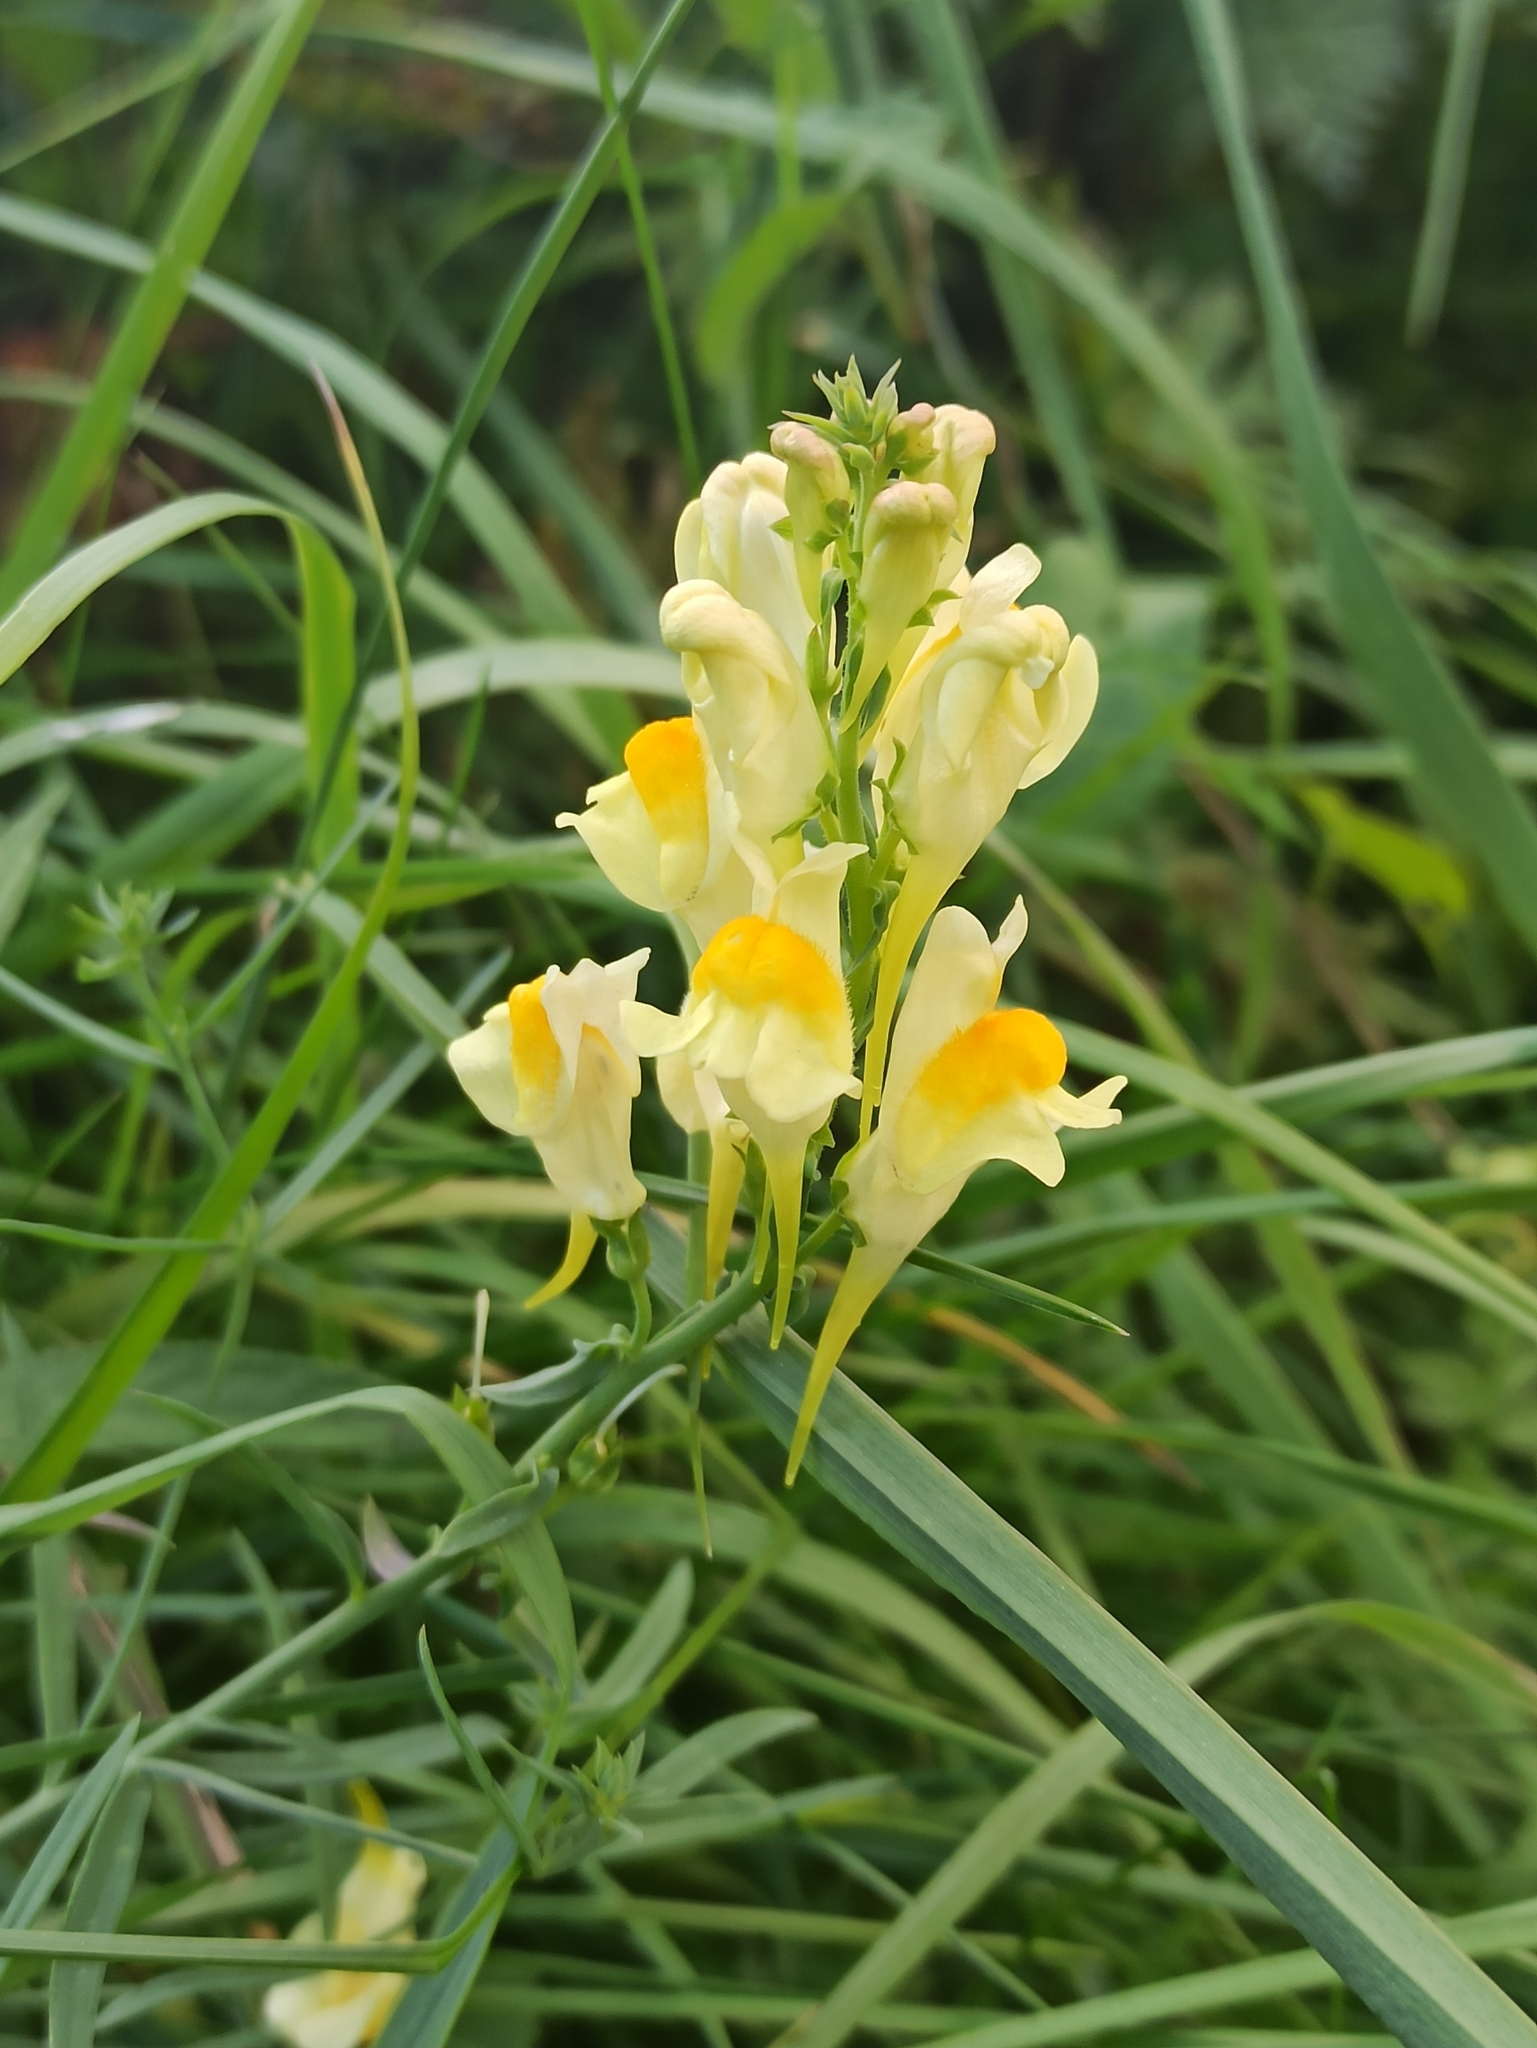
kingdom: Plantae
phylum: Tracheophyta
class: Magnoliopsida
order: Lamiales
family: Plantaginaceae
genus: Linaria
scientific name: Linaria vulgaris
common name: Butter and eggs
